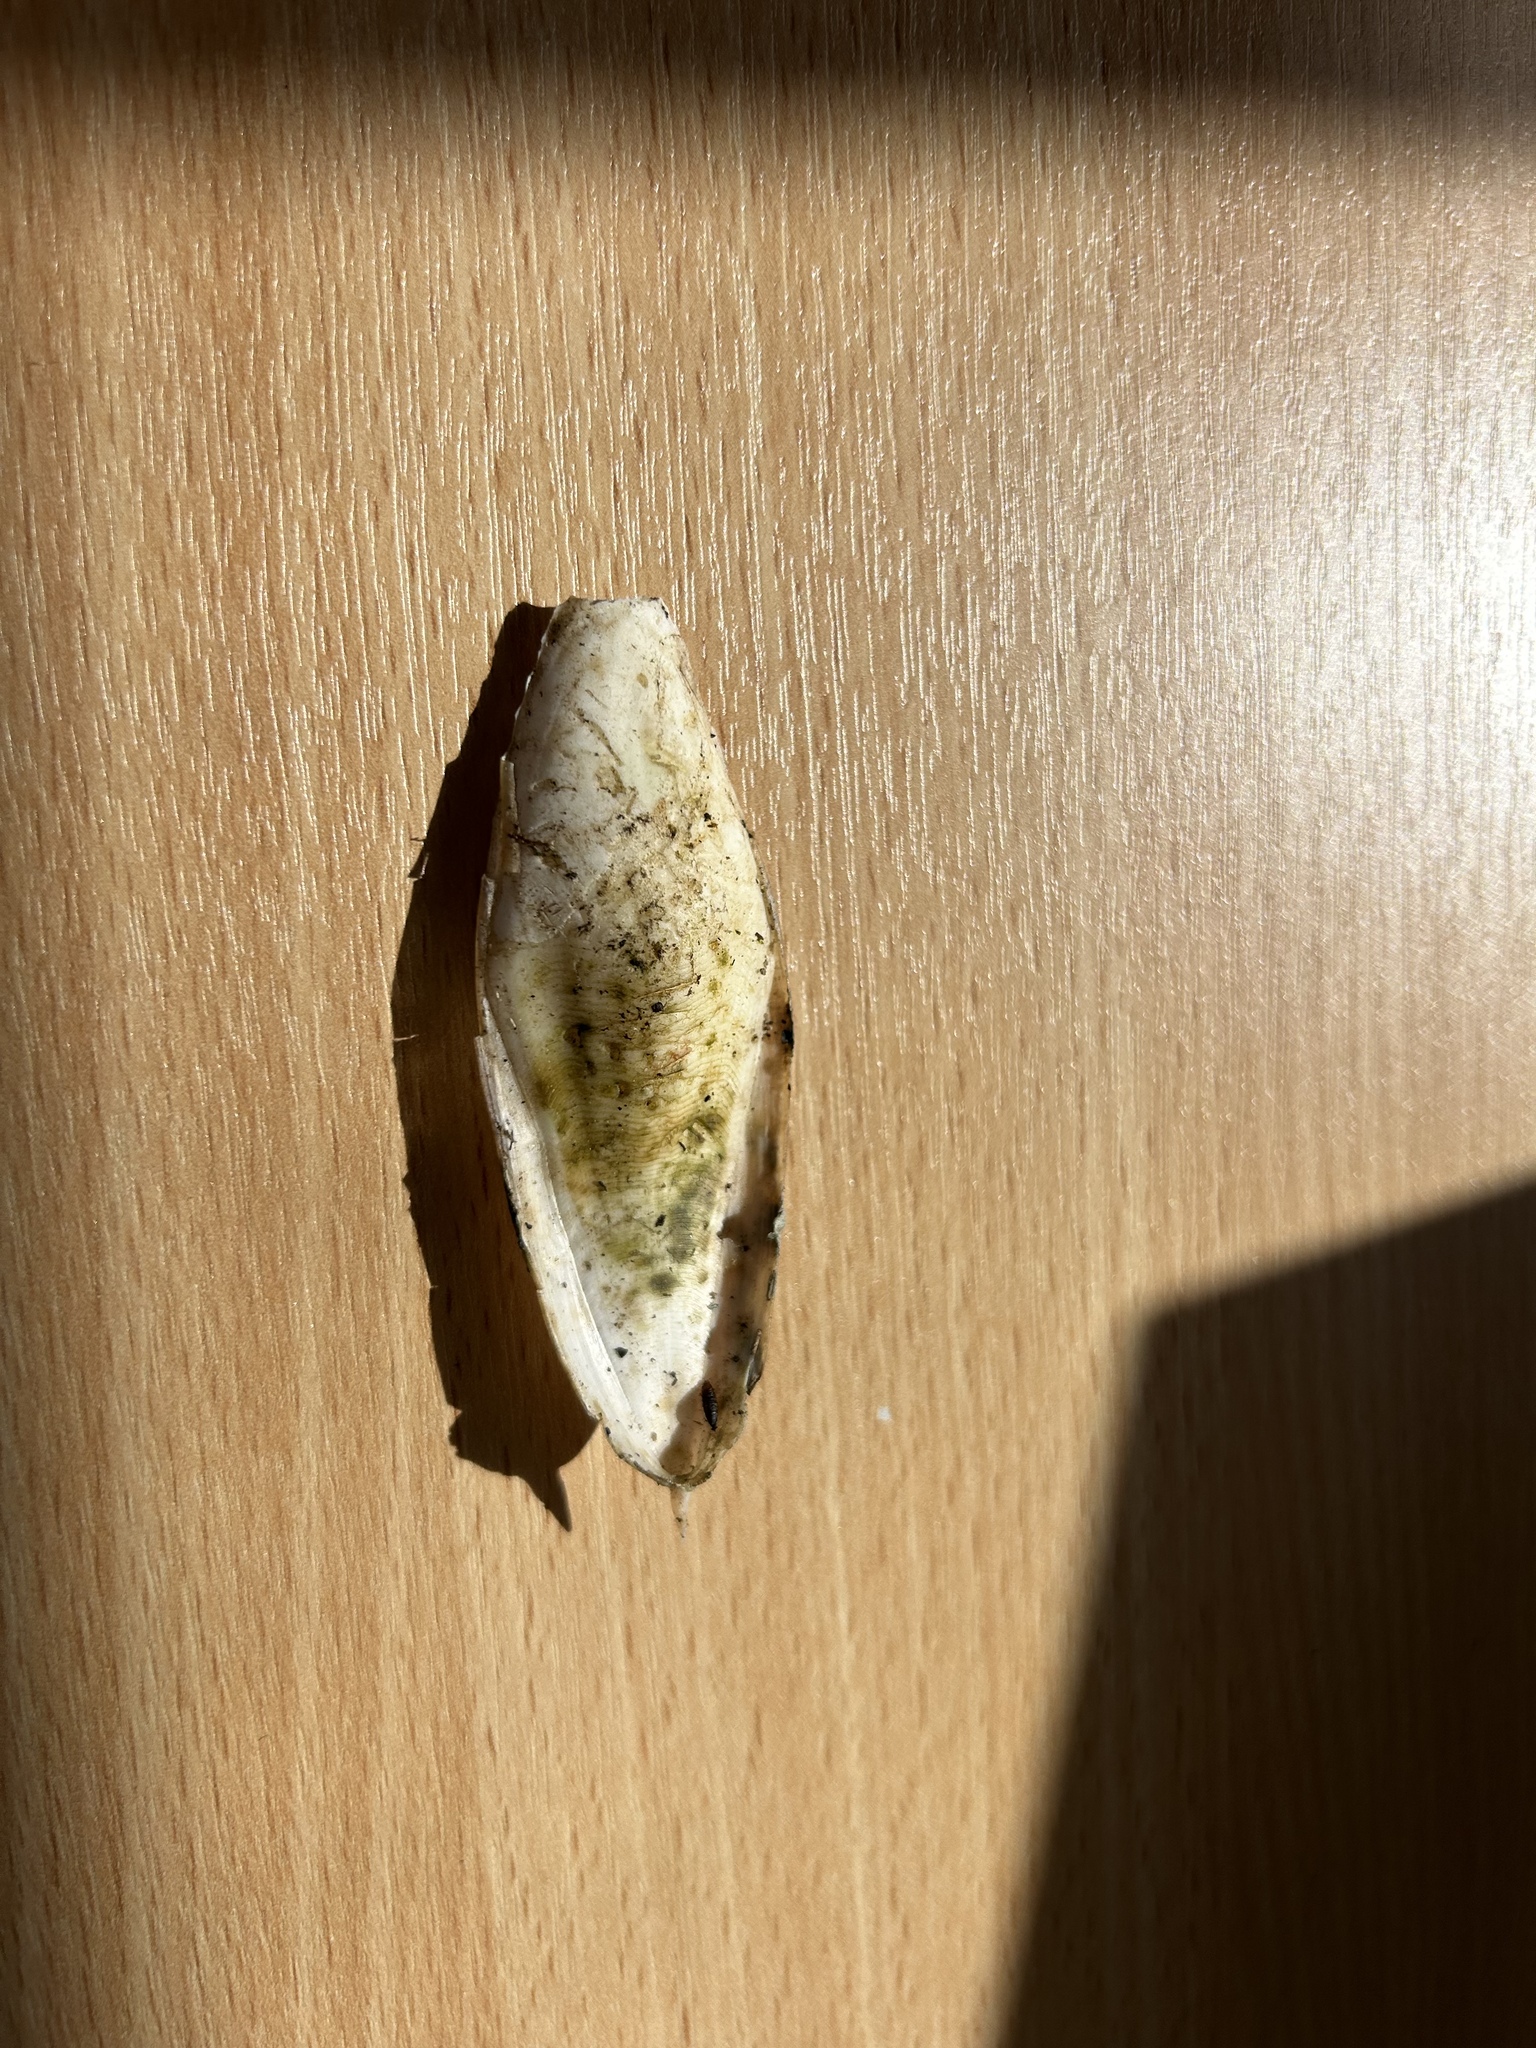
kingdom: Animalia
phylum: Mollusca
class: Cephalopoda
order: Sepiida
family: Sepiidae
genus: Rhombosepion
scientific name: Rhombosepion orbignyanum
